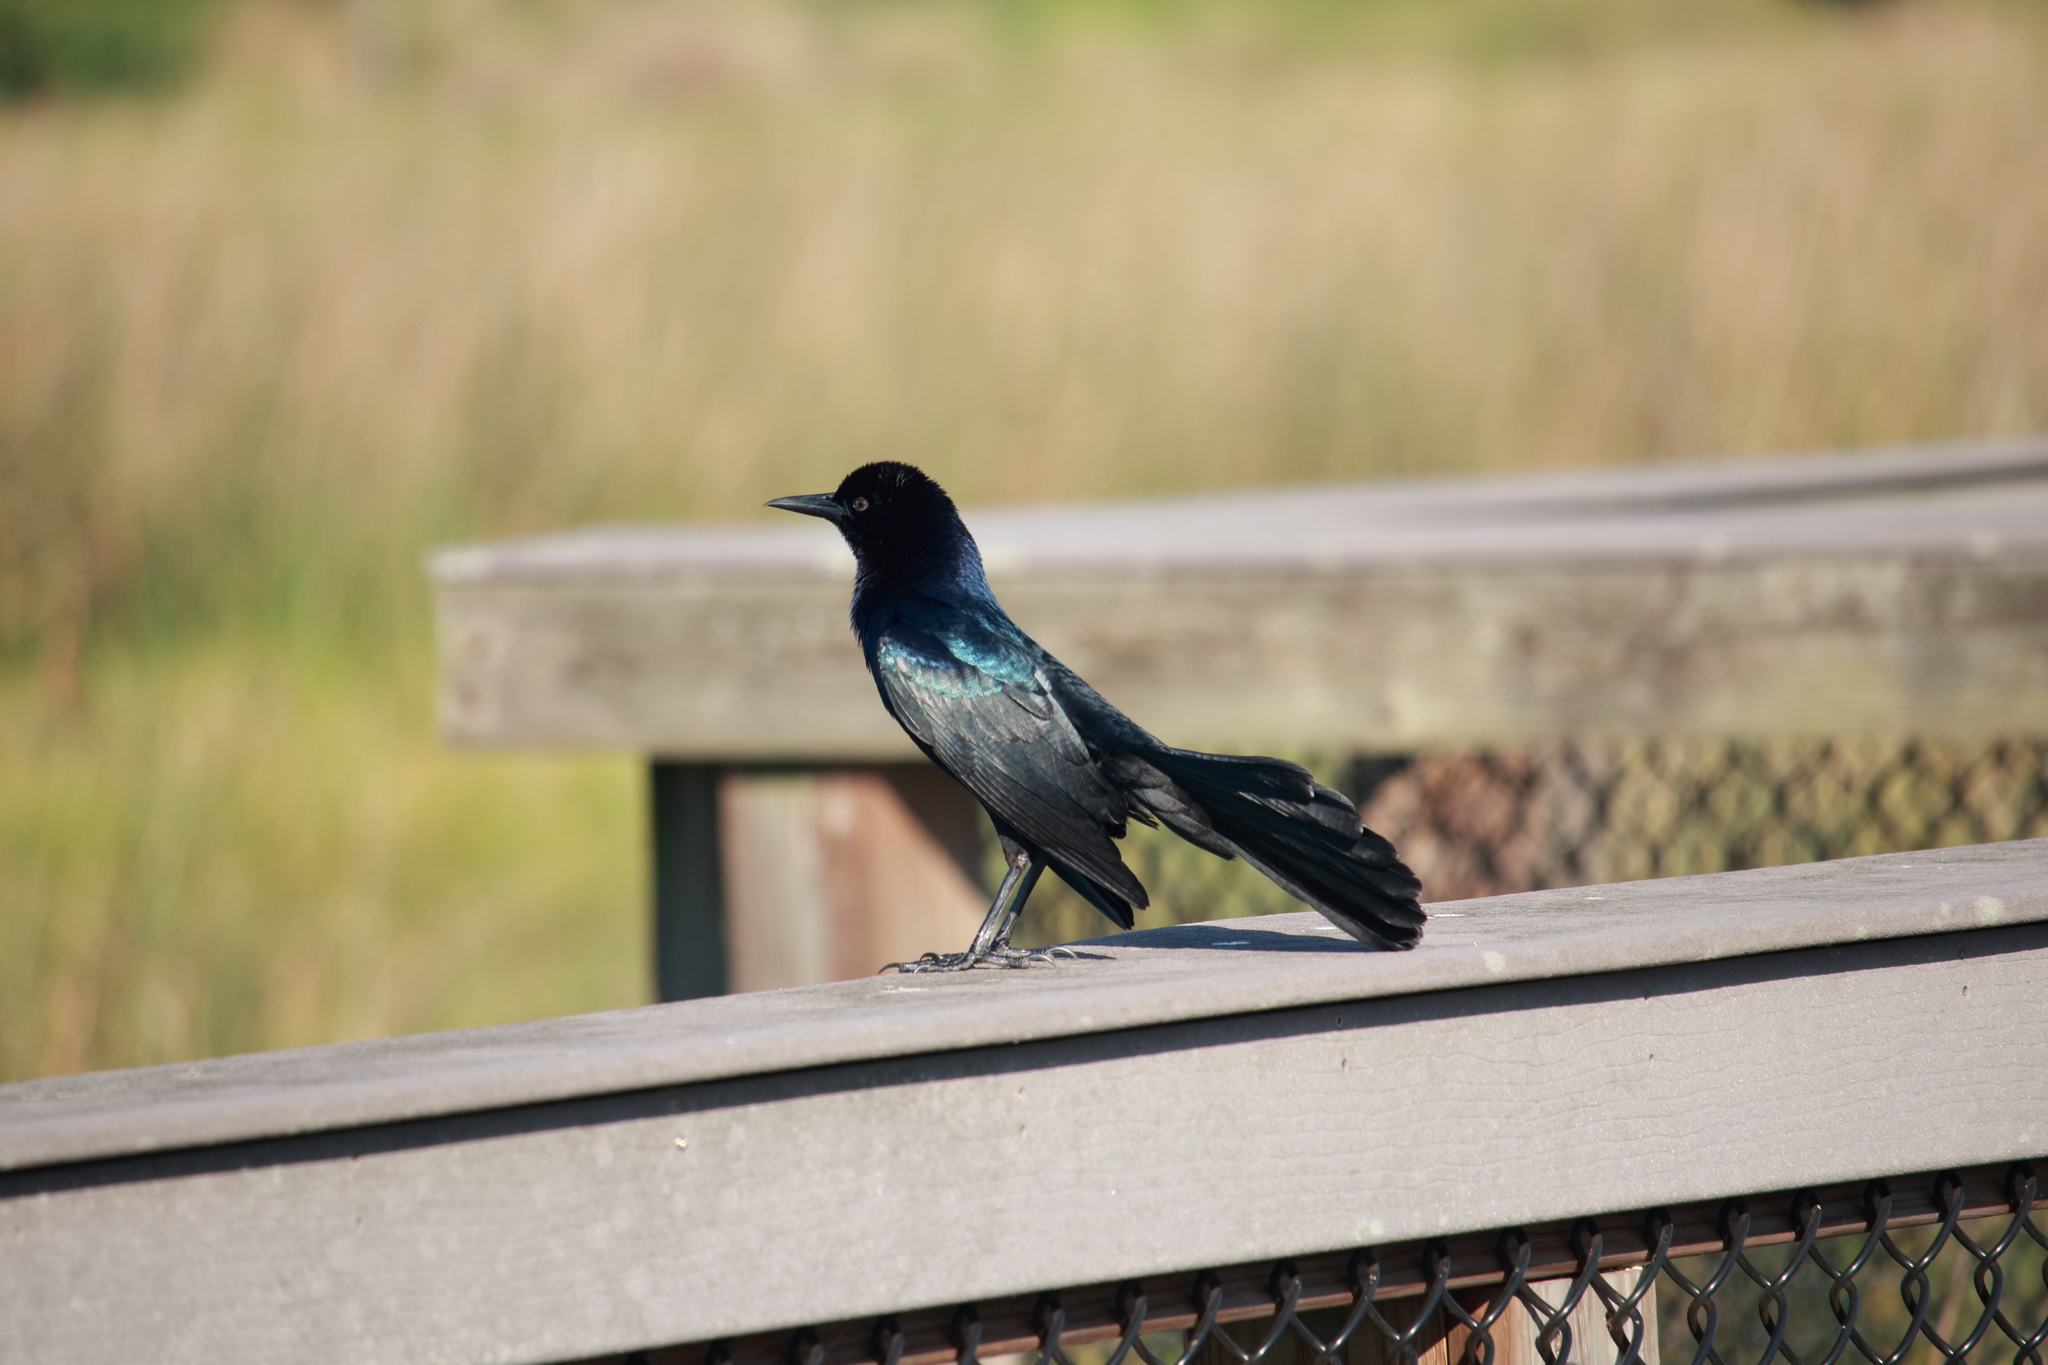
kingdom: Animalia
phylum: Chordata
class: Aves
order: Passeriformes
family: Icteridae
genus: Quiscalus
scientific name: Quiscalus major
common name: Boat-tailed grackle
